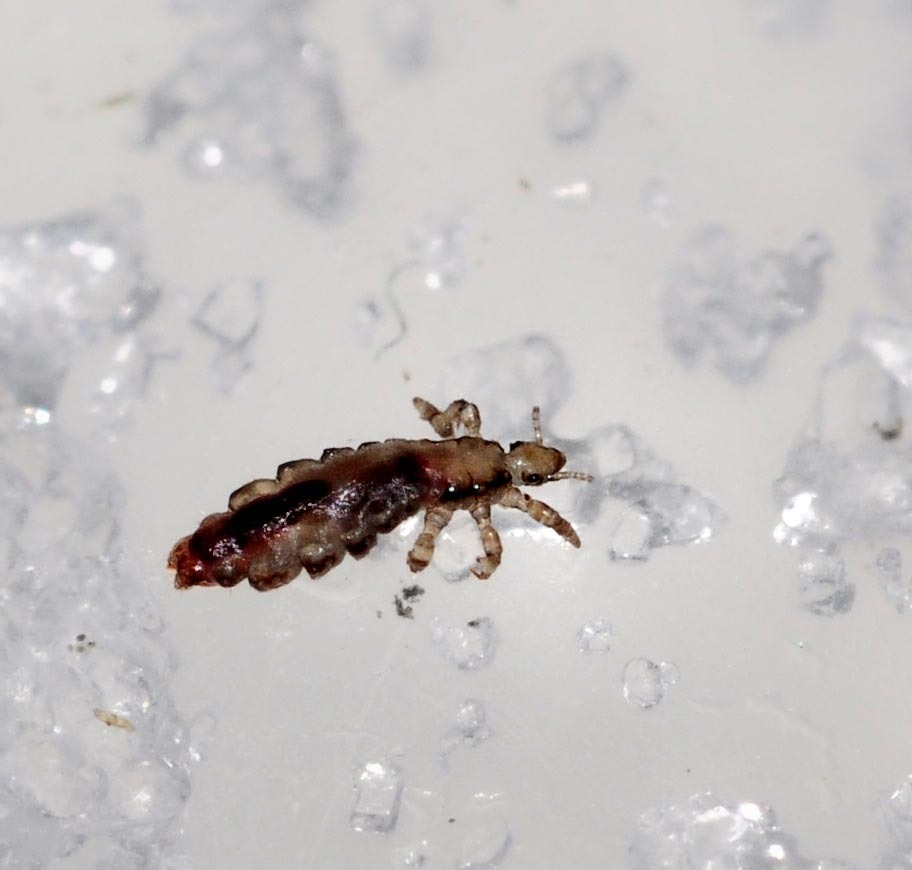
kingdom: Animalia
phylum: Arthropoda
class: Insecta
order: Psocodea
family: Pediculidae
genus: Pediculus
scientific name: Pediculus humanus
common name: Body louse
